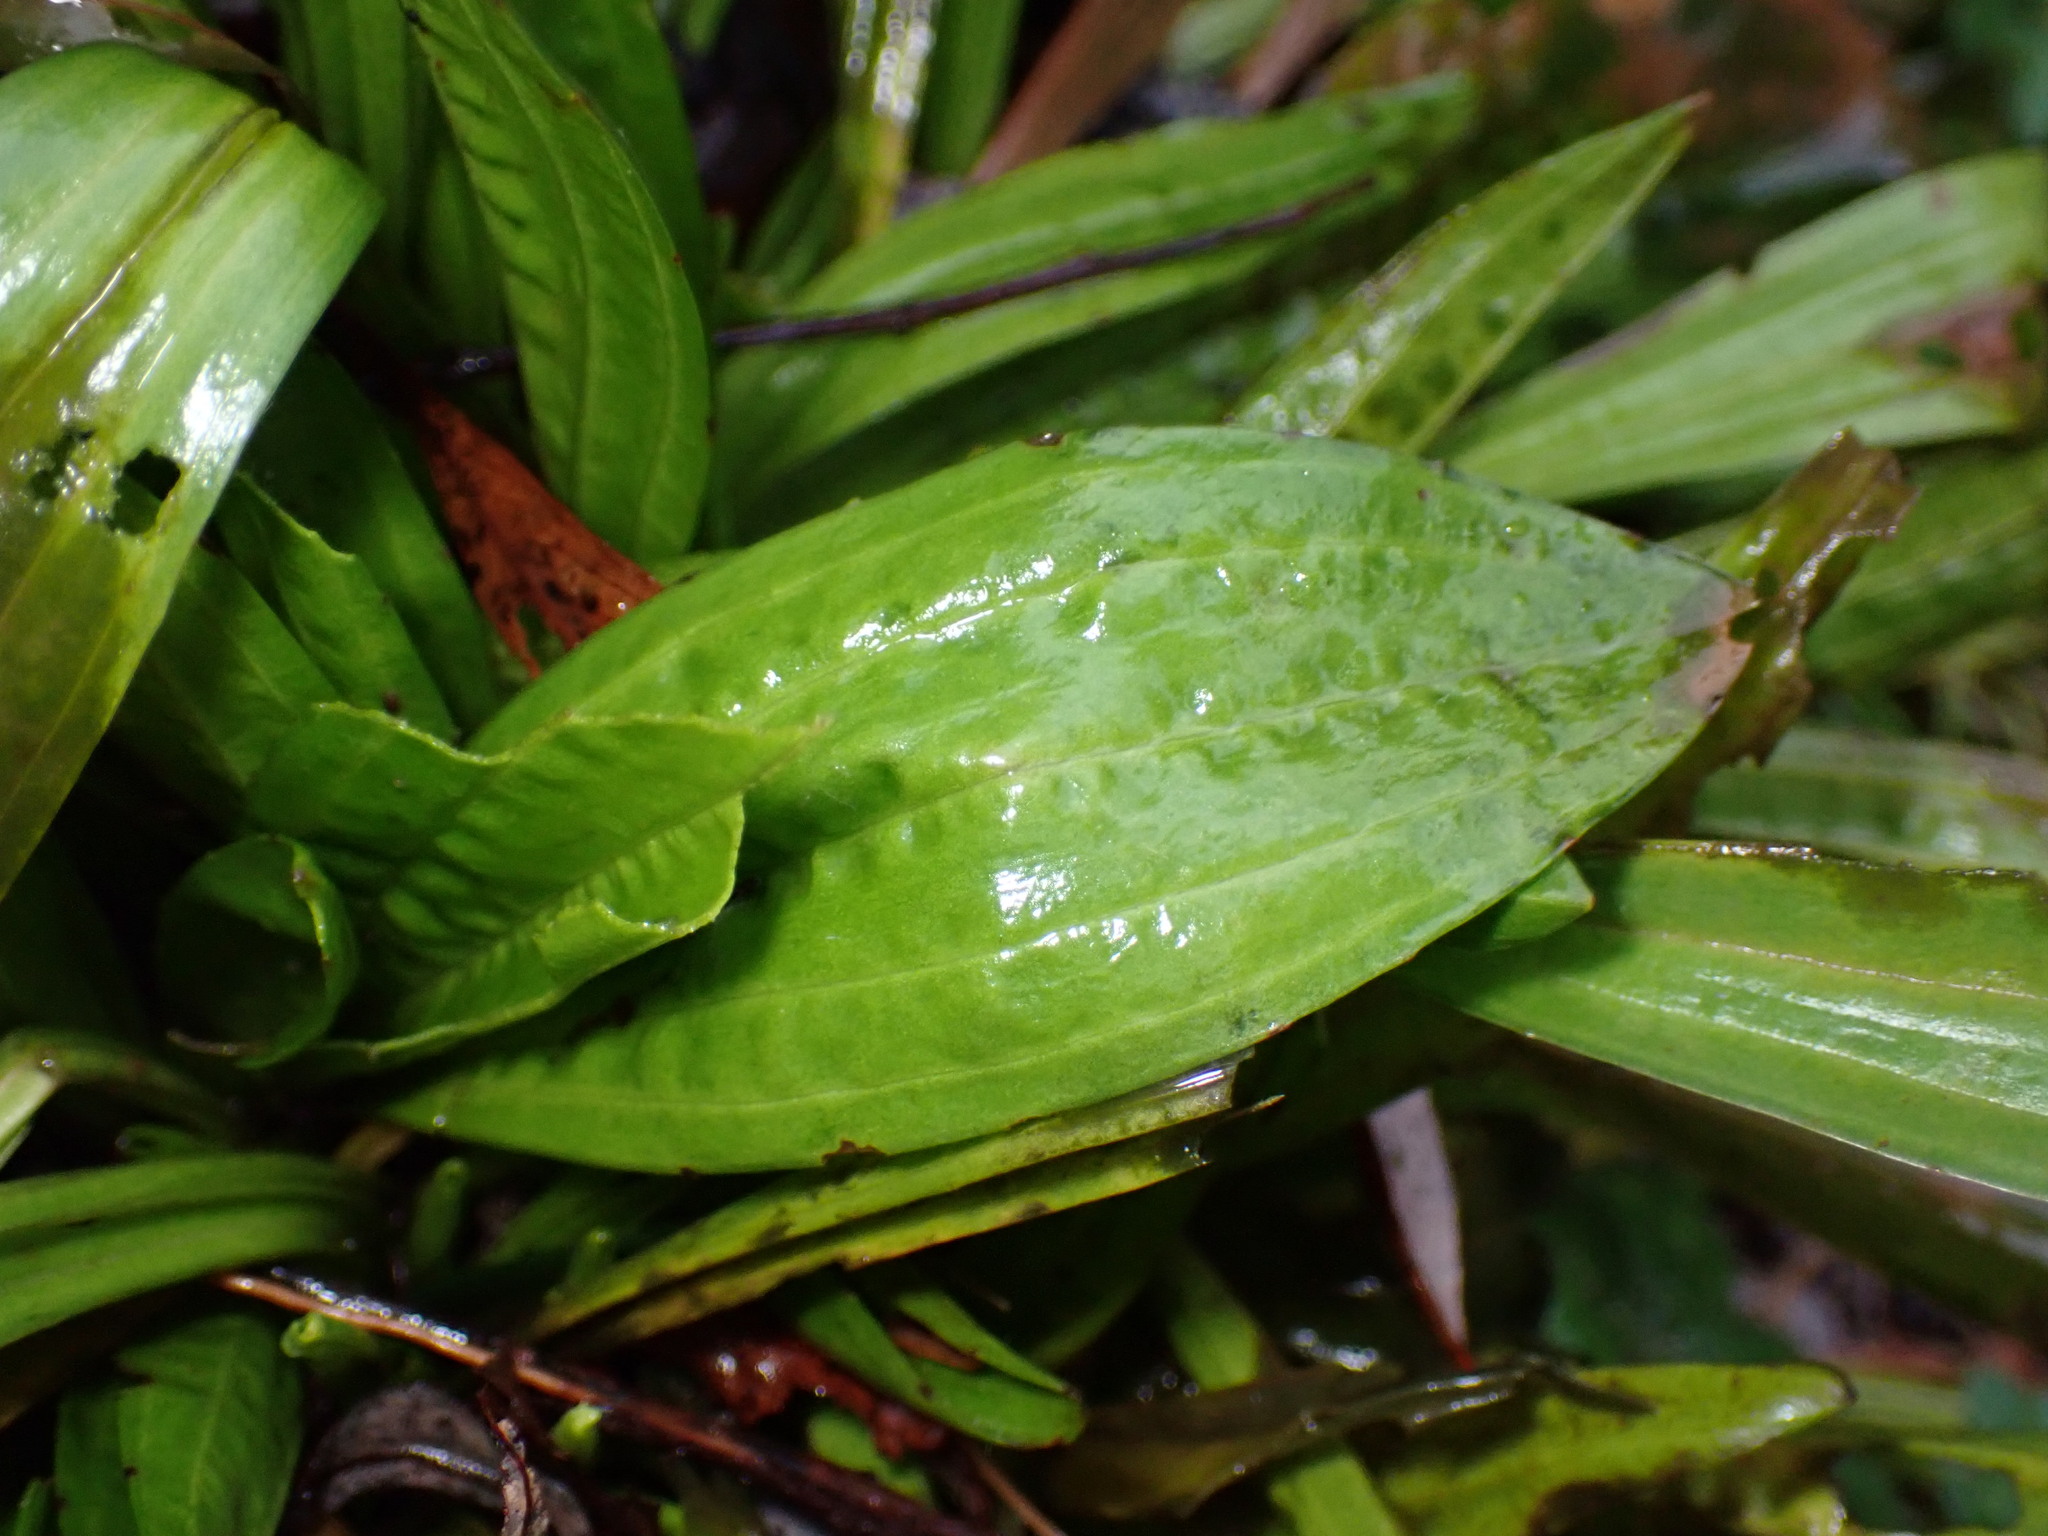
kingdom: Plantae
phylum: Tracheophyta
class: Magnoliopsida
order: Lamiales
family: Plantaginaceae
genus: Plantago
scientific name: Plantago lanceolata
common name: Ribwort plantain
